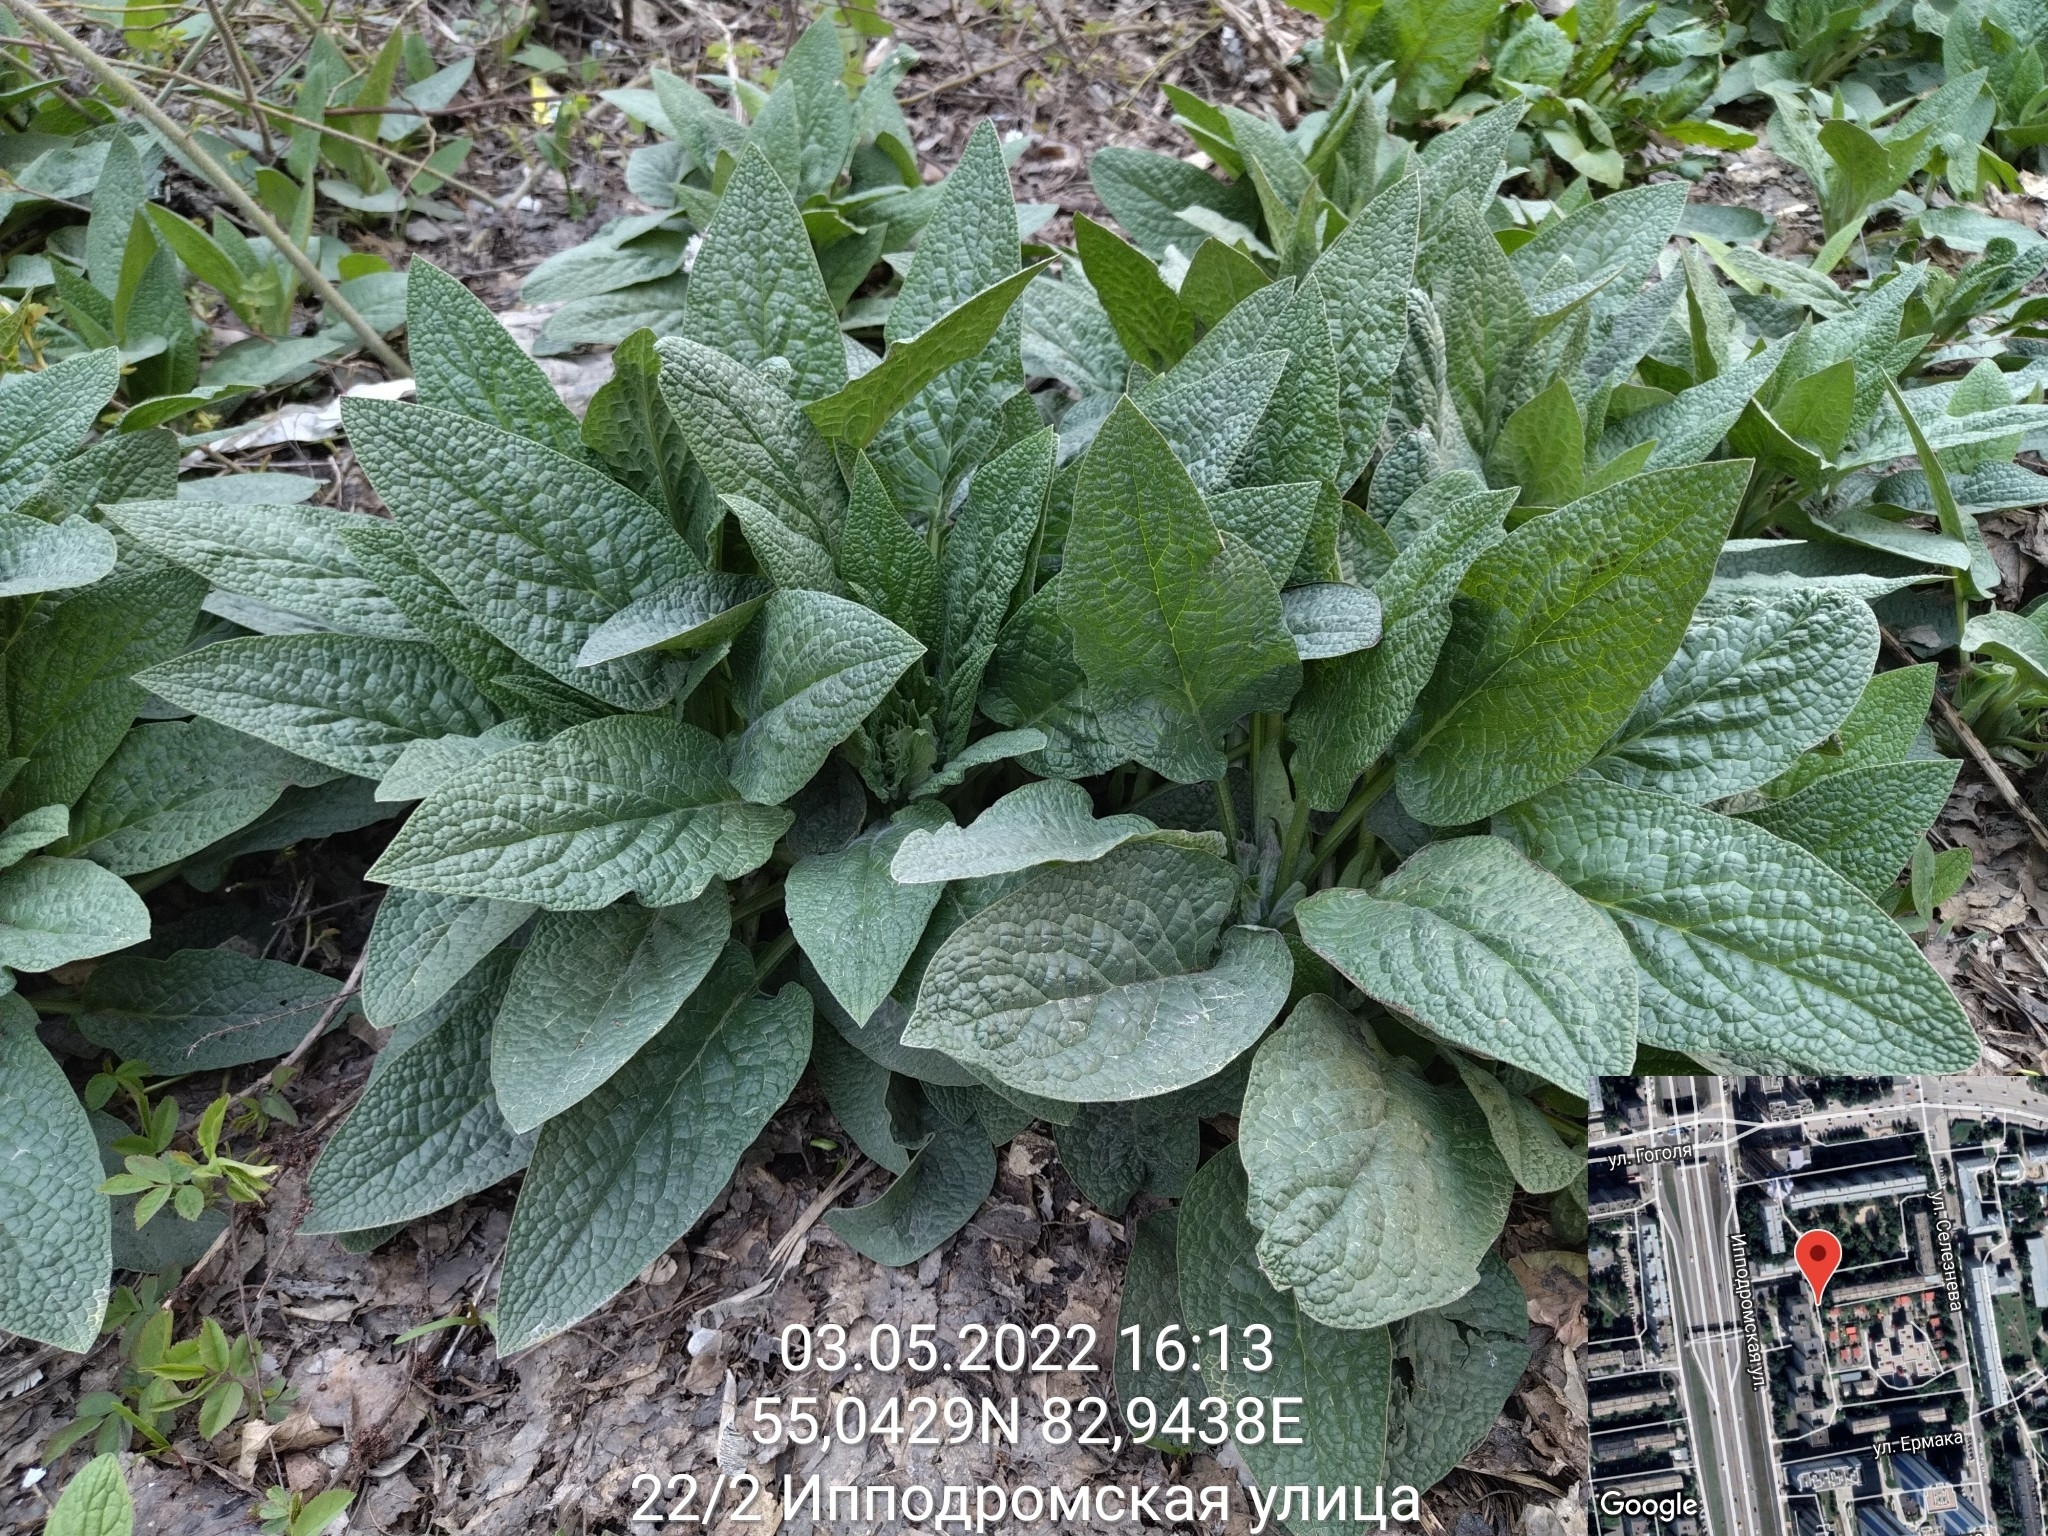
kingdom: Plantae
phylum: Tracheophyta
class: Magnoliopsida
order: Boraginales
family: Boraginaceae
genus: Symphytum
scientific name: Symphytum caucasicum
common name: Caucasian comfrey
